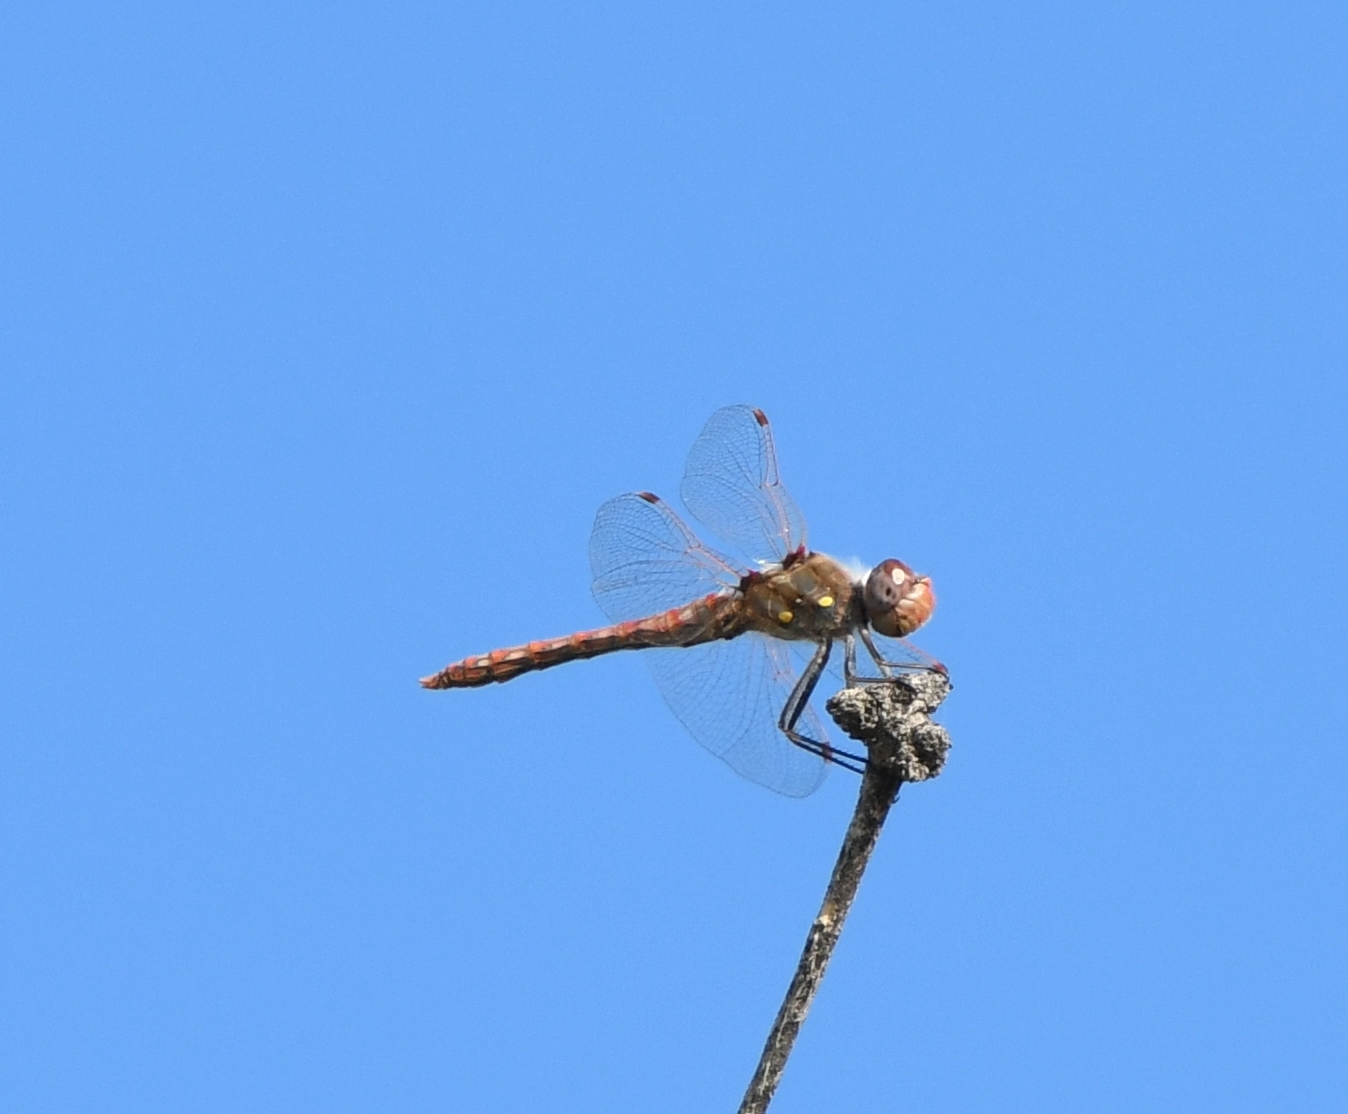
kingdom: Animalia
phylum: Arthropoda
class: Insecta
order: Odonata
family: Libellulidae
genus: Sympetrum
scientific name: Sympetrum corruptum
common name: Variegated meadowhawk
